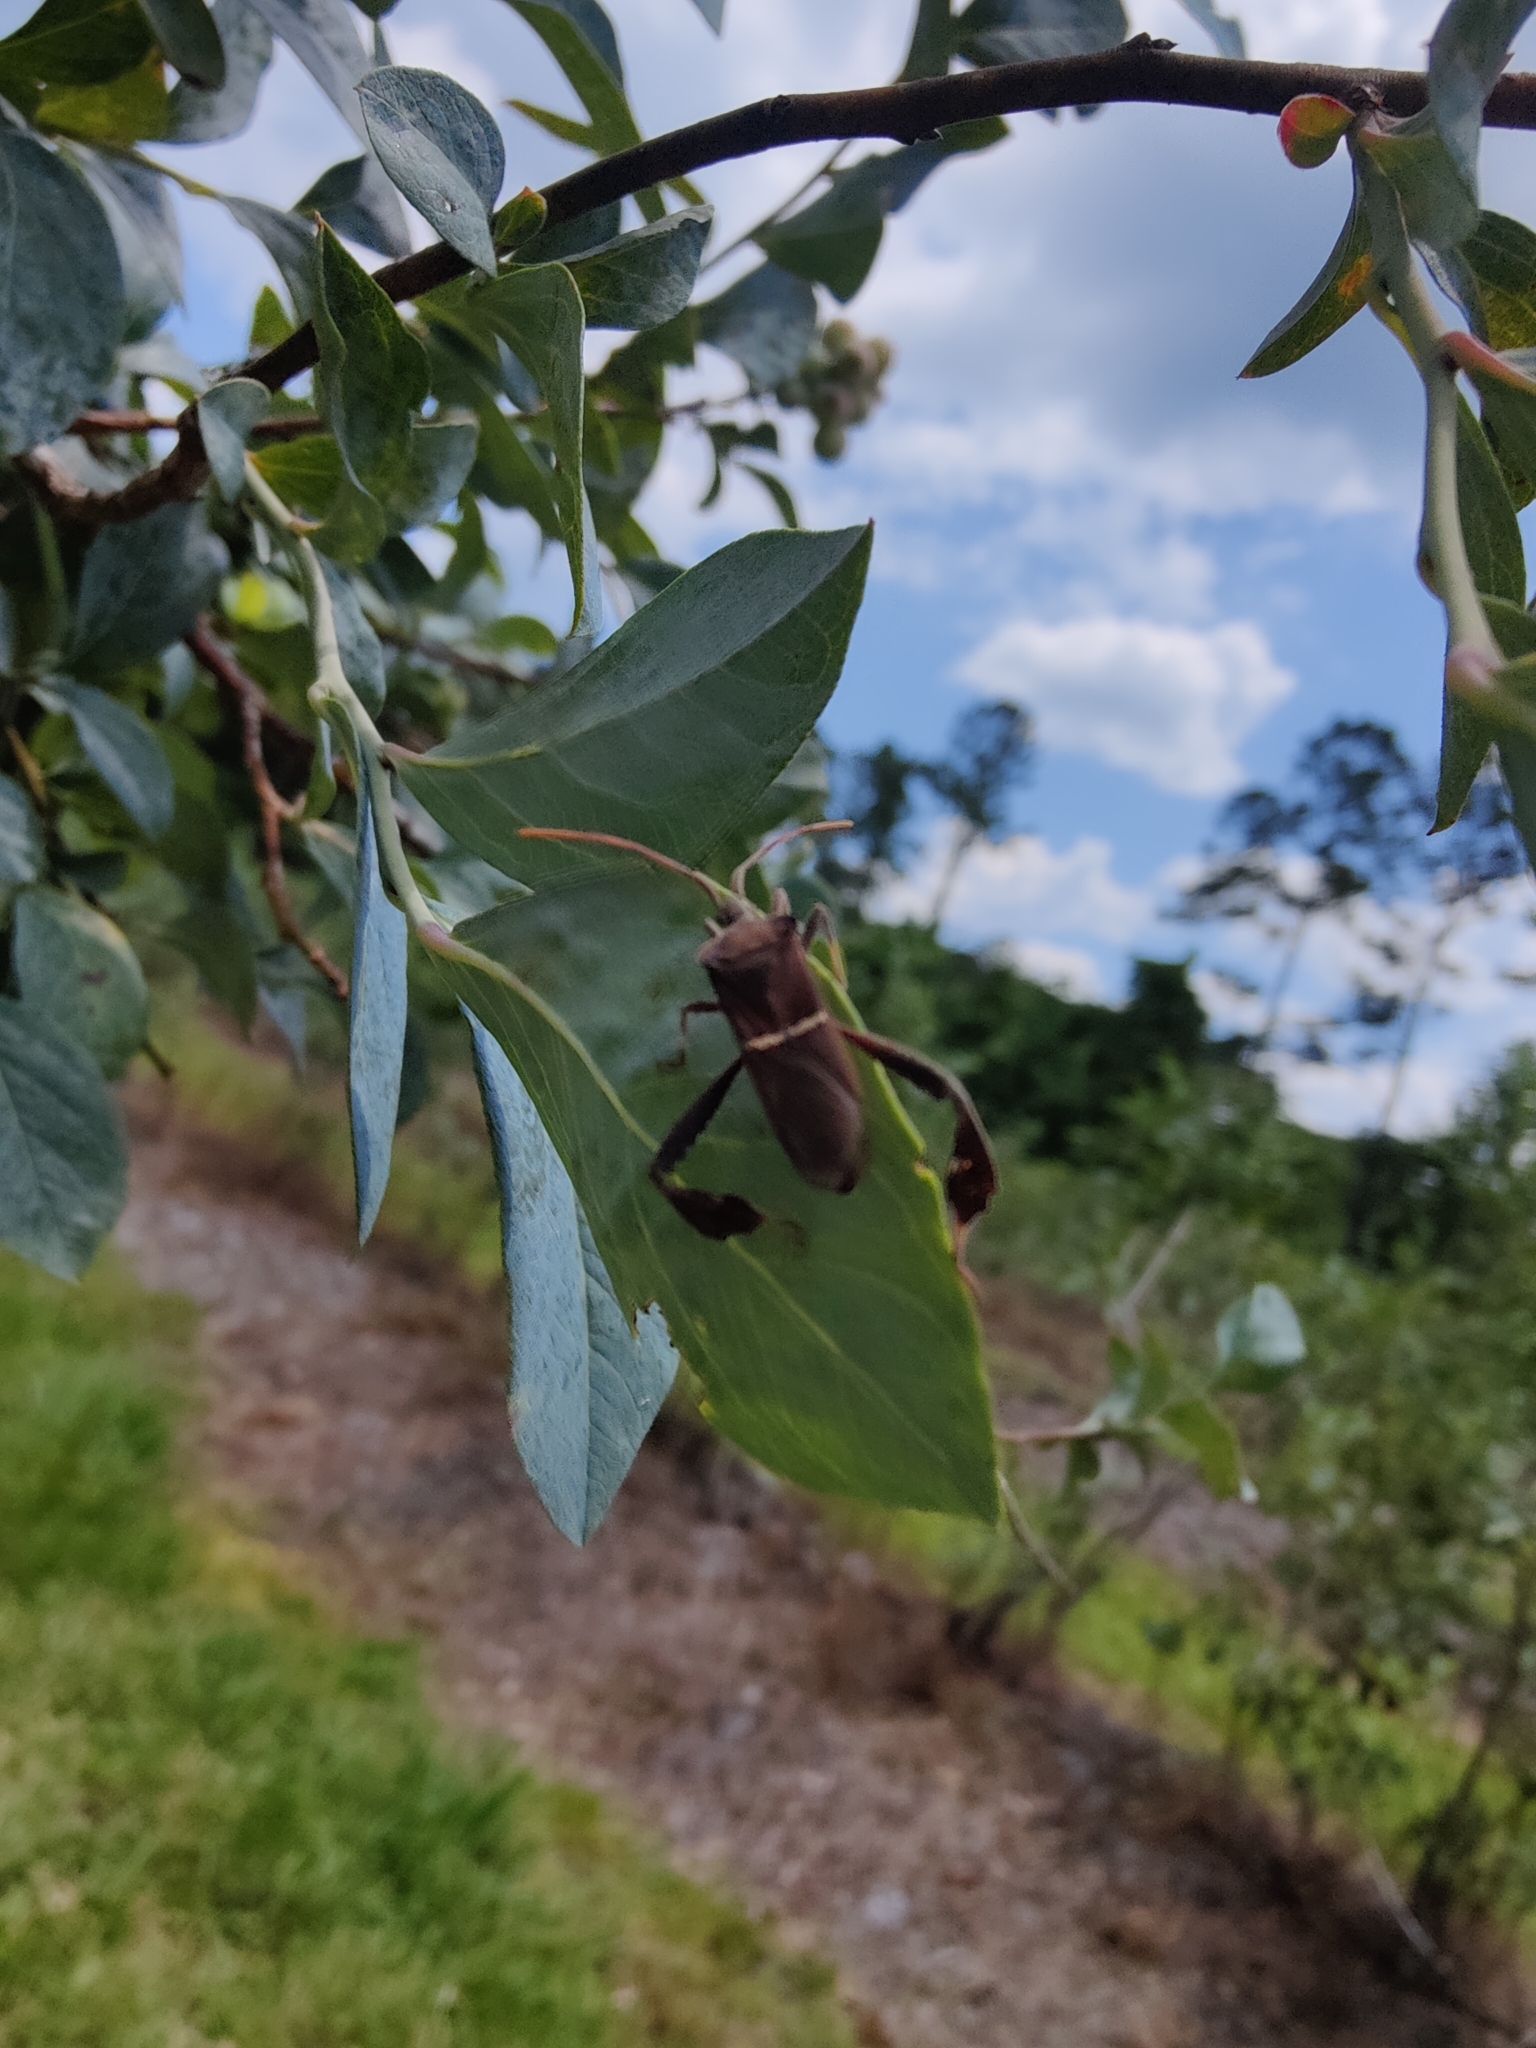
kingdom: Animalia
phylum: Arthropoda
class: Insecta
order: Hemiptera
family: Coreidae
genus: Leptoglossus
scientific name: Leptoglossus phyllopus
